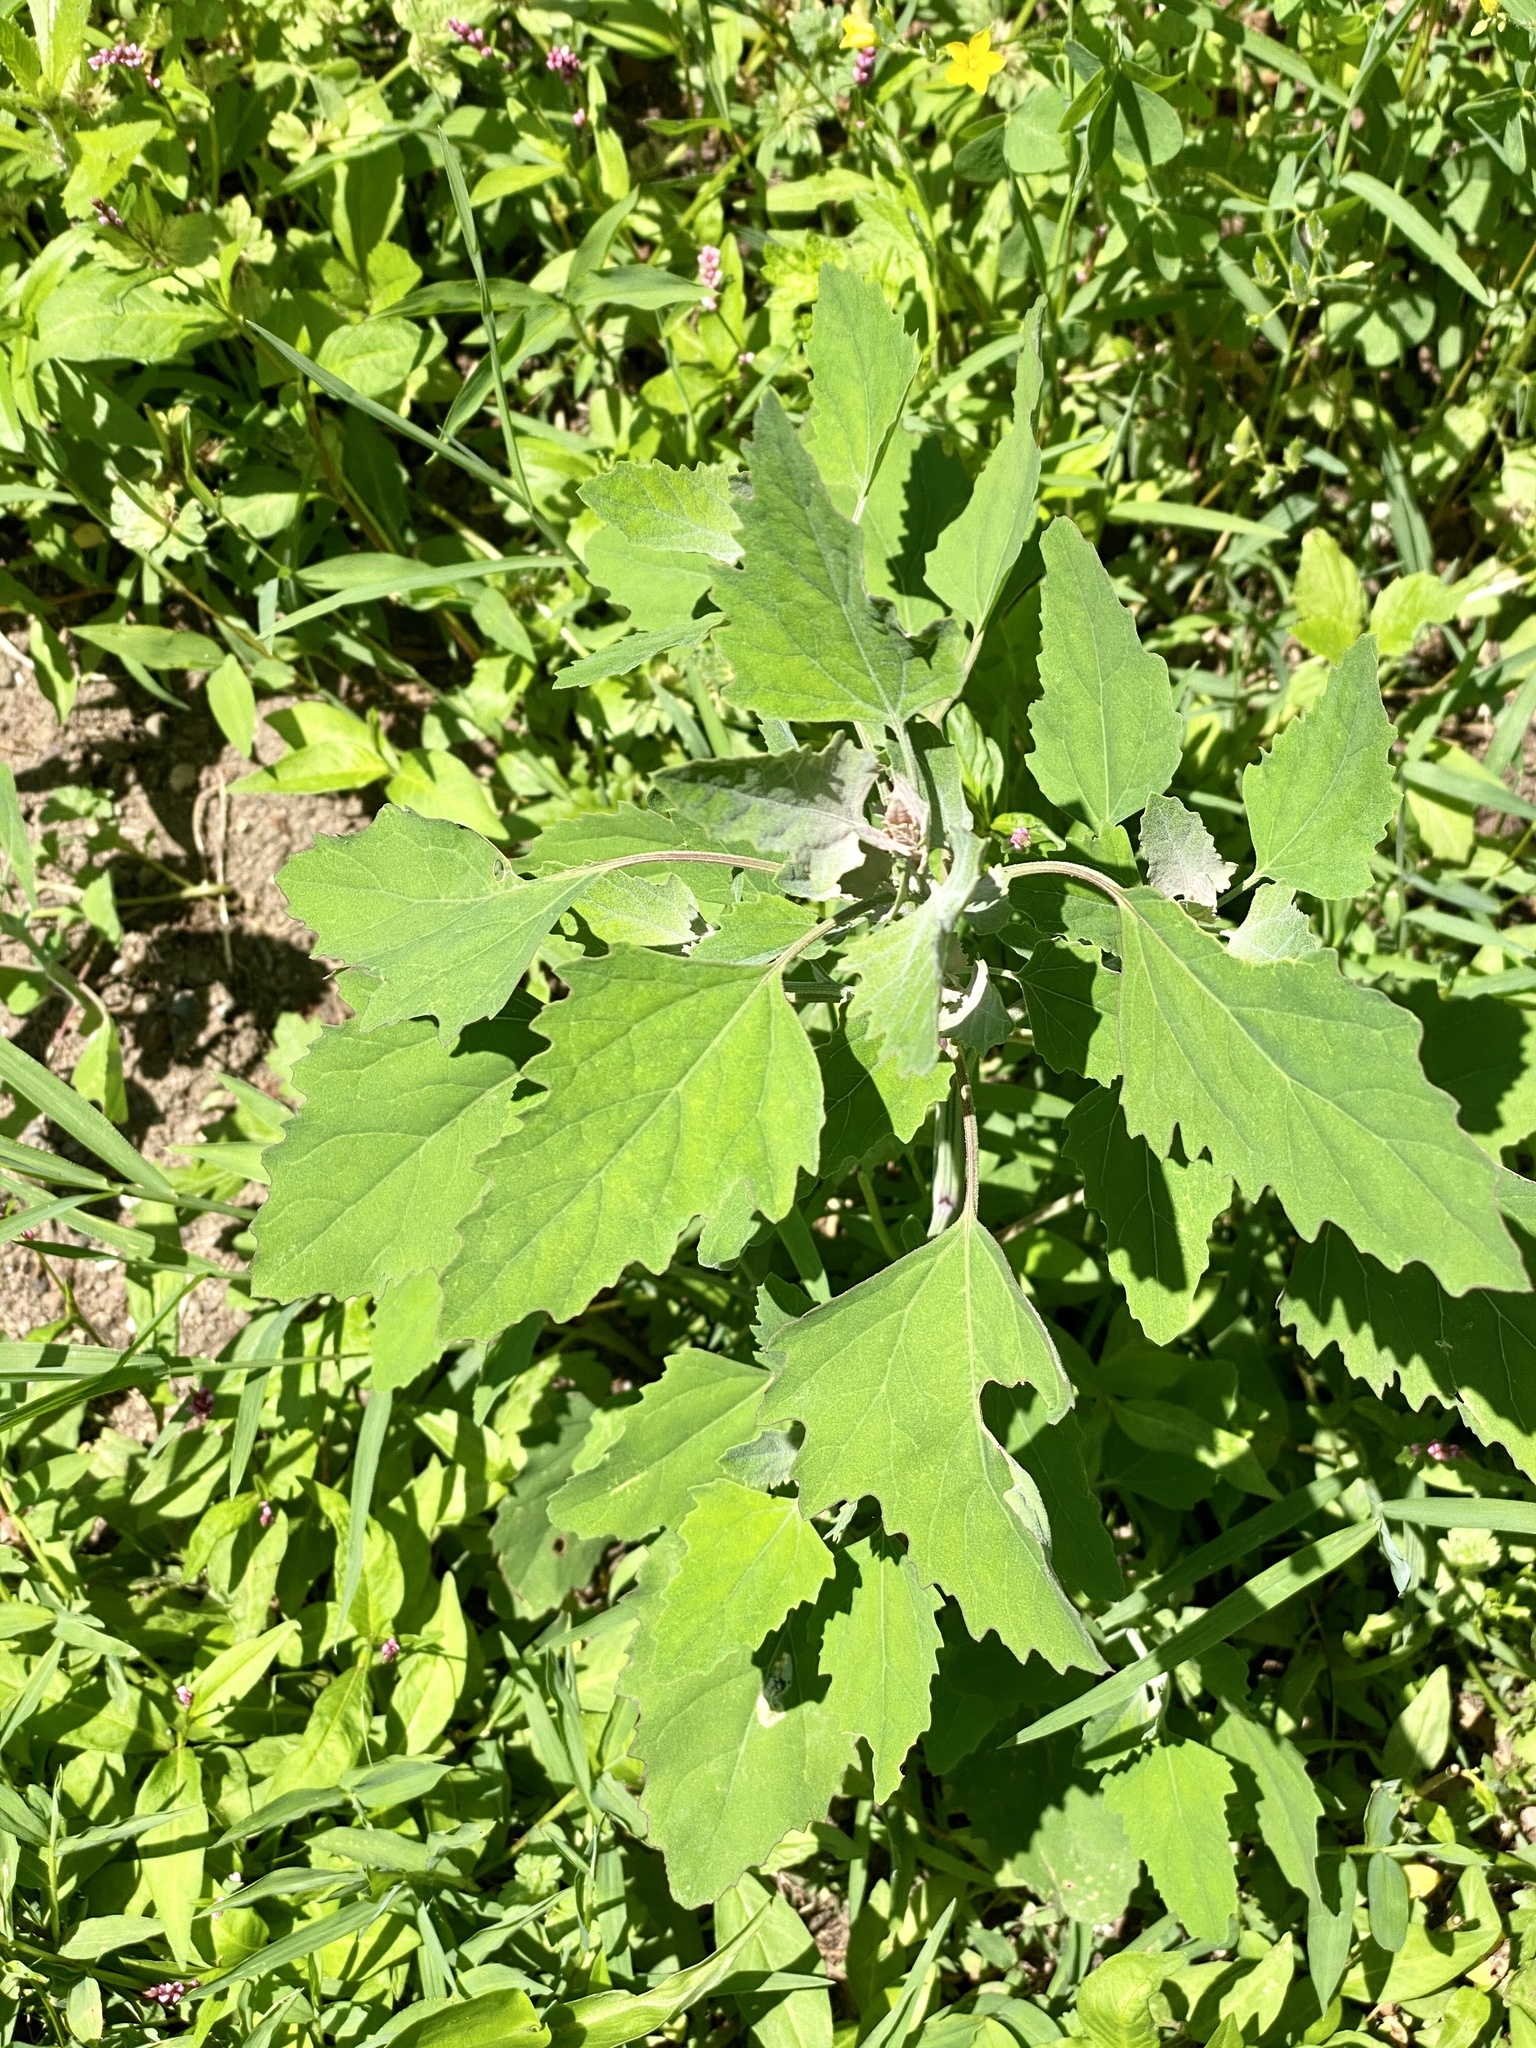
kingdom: Plantae
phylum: Tracheophyta
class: Magnoliopsida
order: Caryophyllales
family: Amaranthaceae
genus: Chenopodium
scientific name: Chenopodium album
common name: Fat-hen
